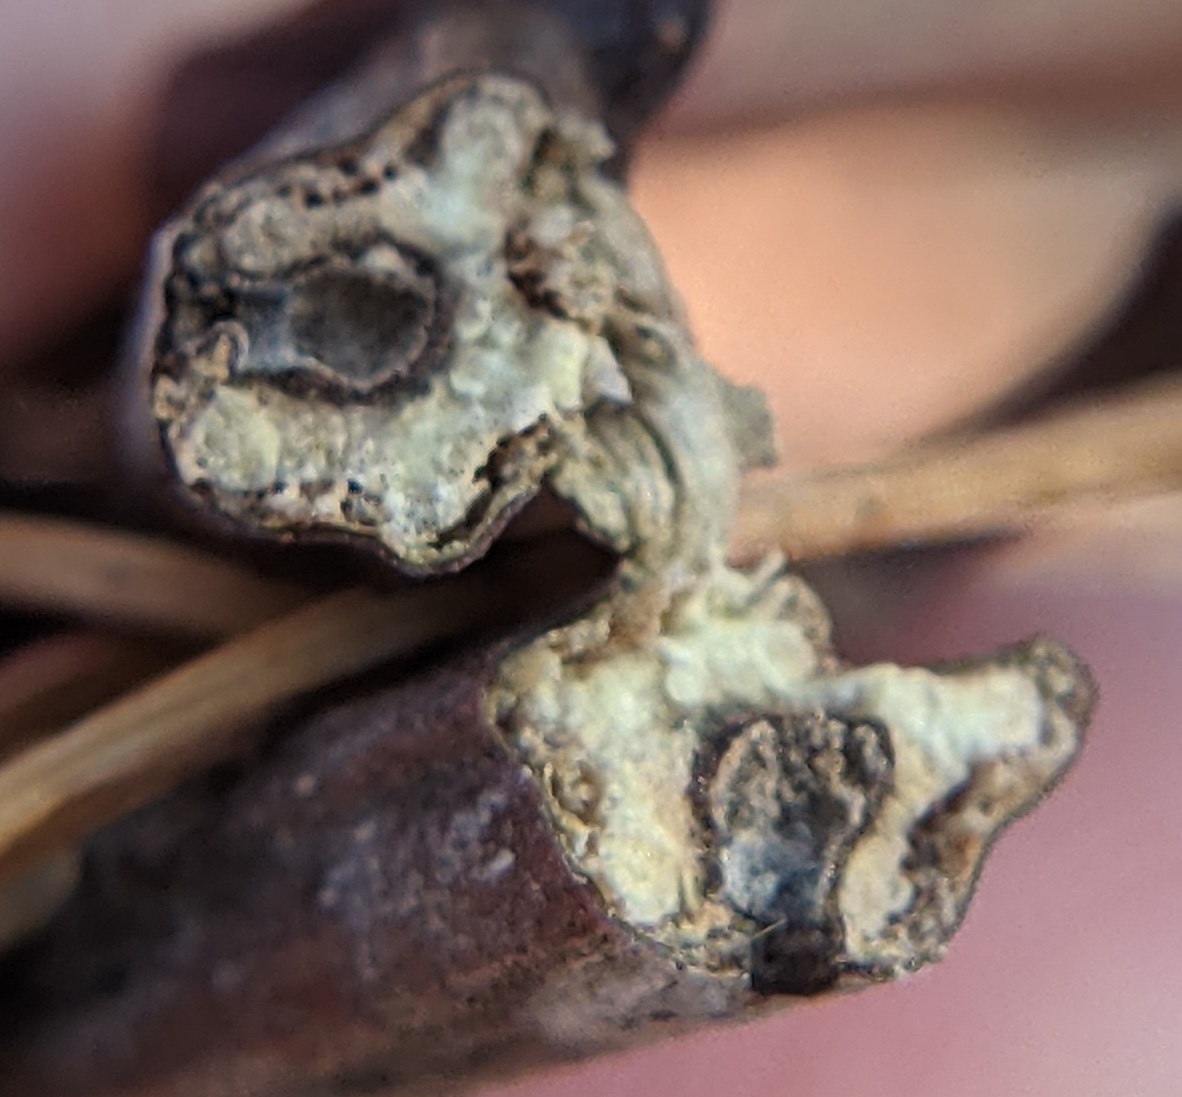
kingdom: Animalia
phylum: Arthropoda
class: Insecta
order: Hymenoptera
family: Cynipidae
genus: Callirhytis
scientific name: Callirhytis
